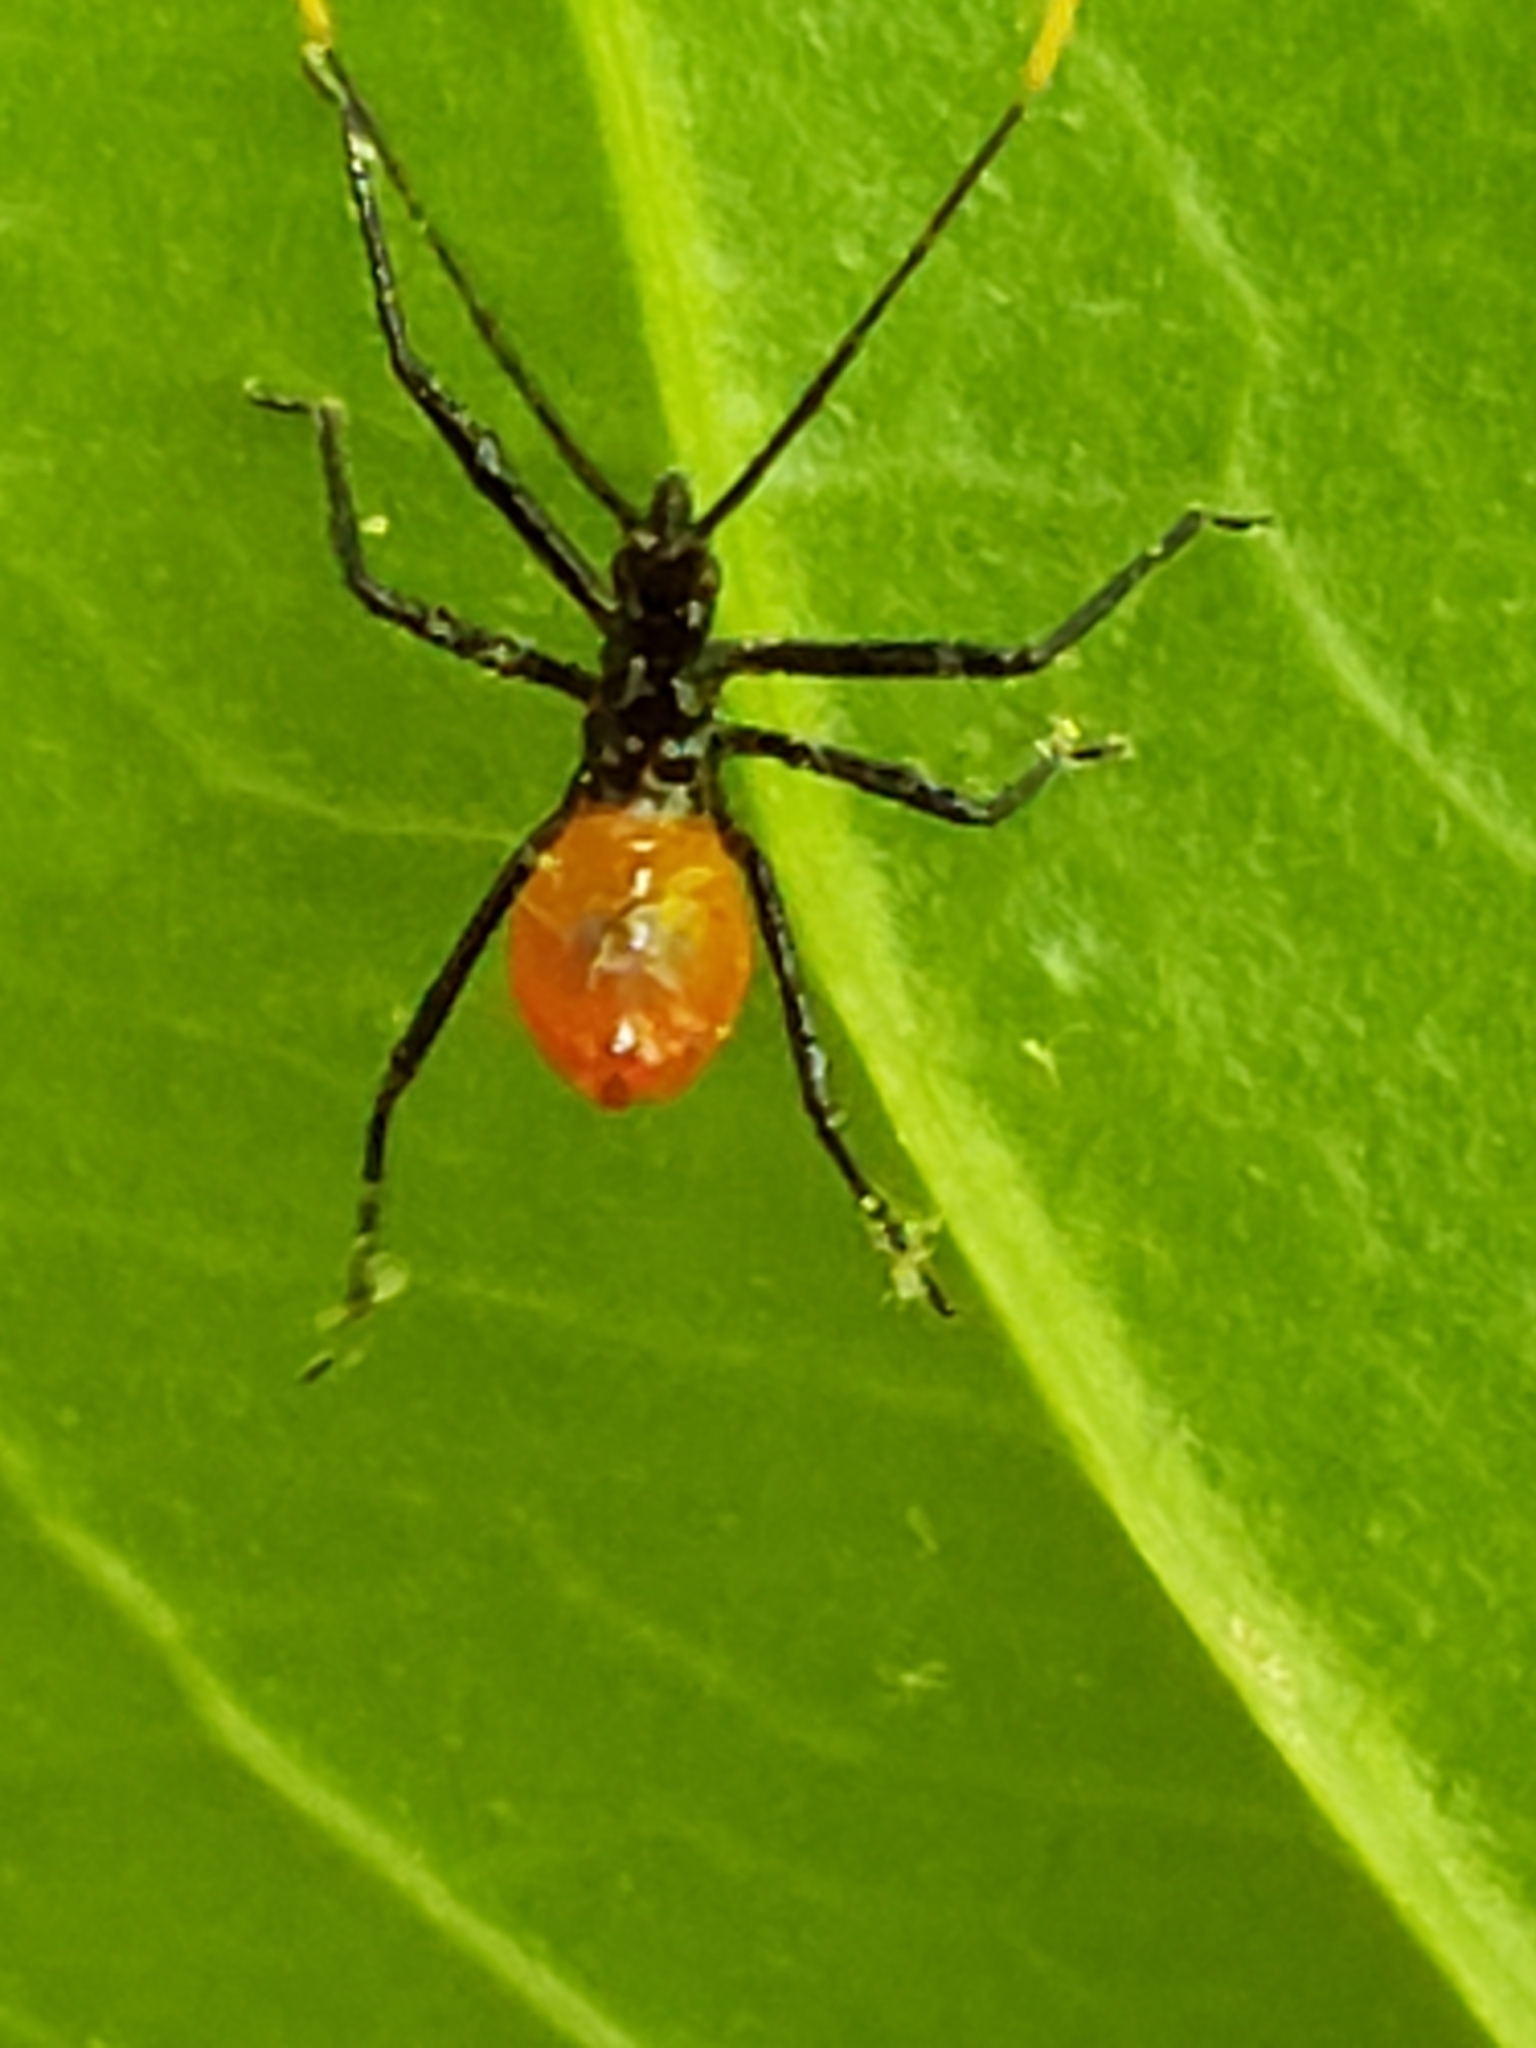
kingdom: Animalia
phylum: Arthropoda
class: Insecta
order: Hemiptera
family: Reduviidae
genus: Arilus
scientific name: Arilus cristatus
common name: North american wheel bug
